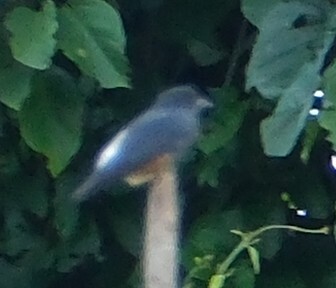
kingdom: Animalia
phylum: Chordata
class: Aves
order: Piciformes
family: Bucconidae
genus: Chelidoptera
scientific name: Chelidoptera tenebrosa
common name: Swallow-winged puffbird
